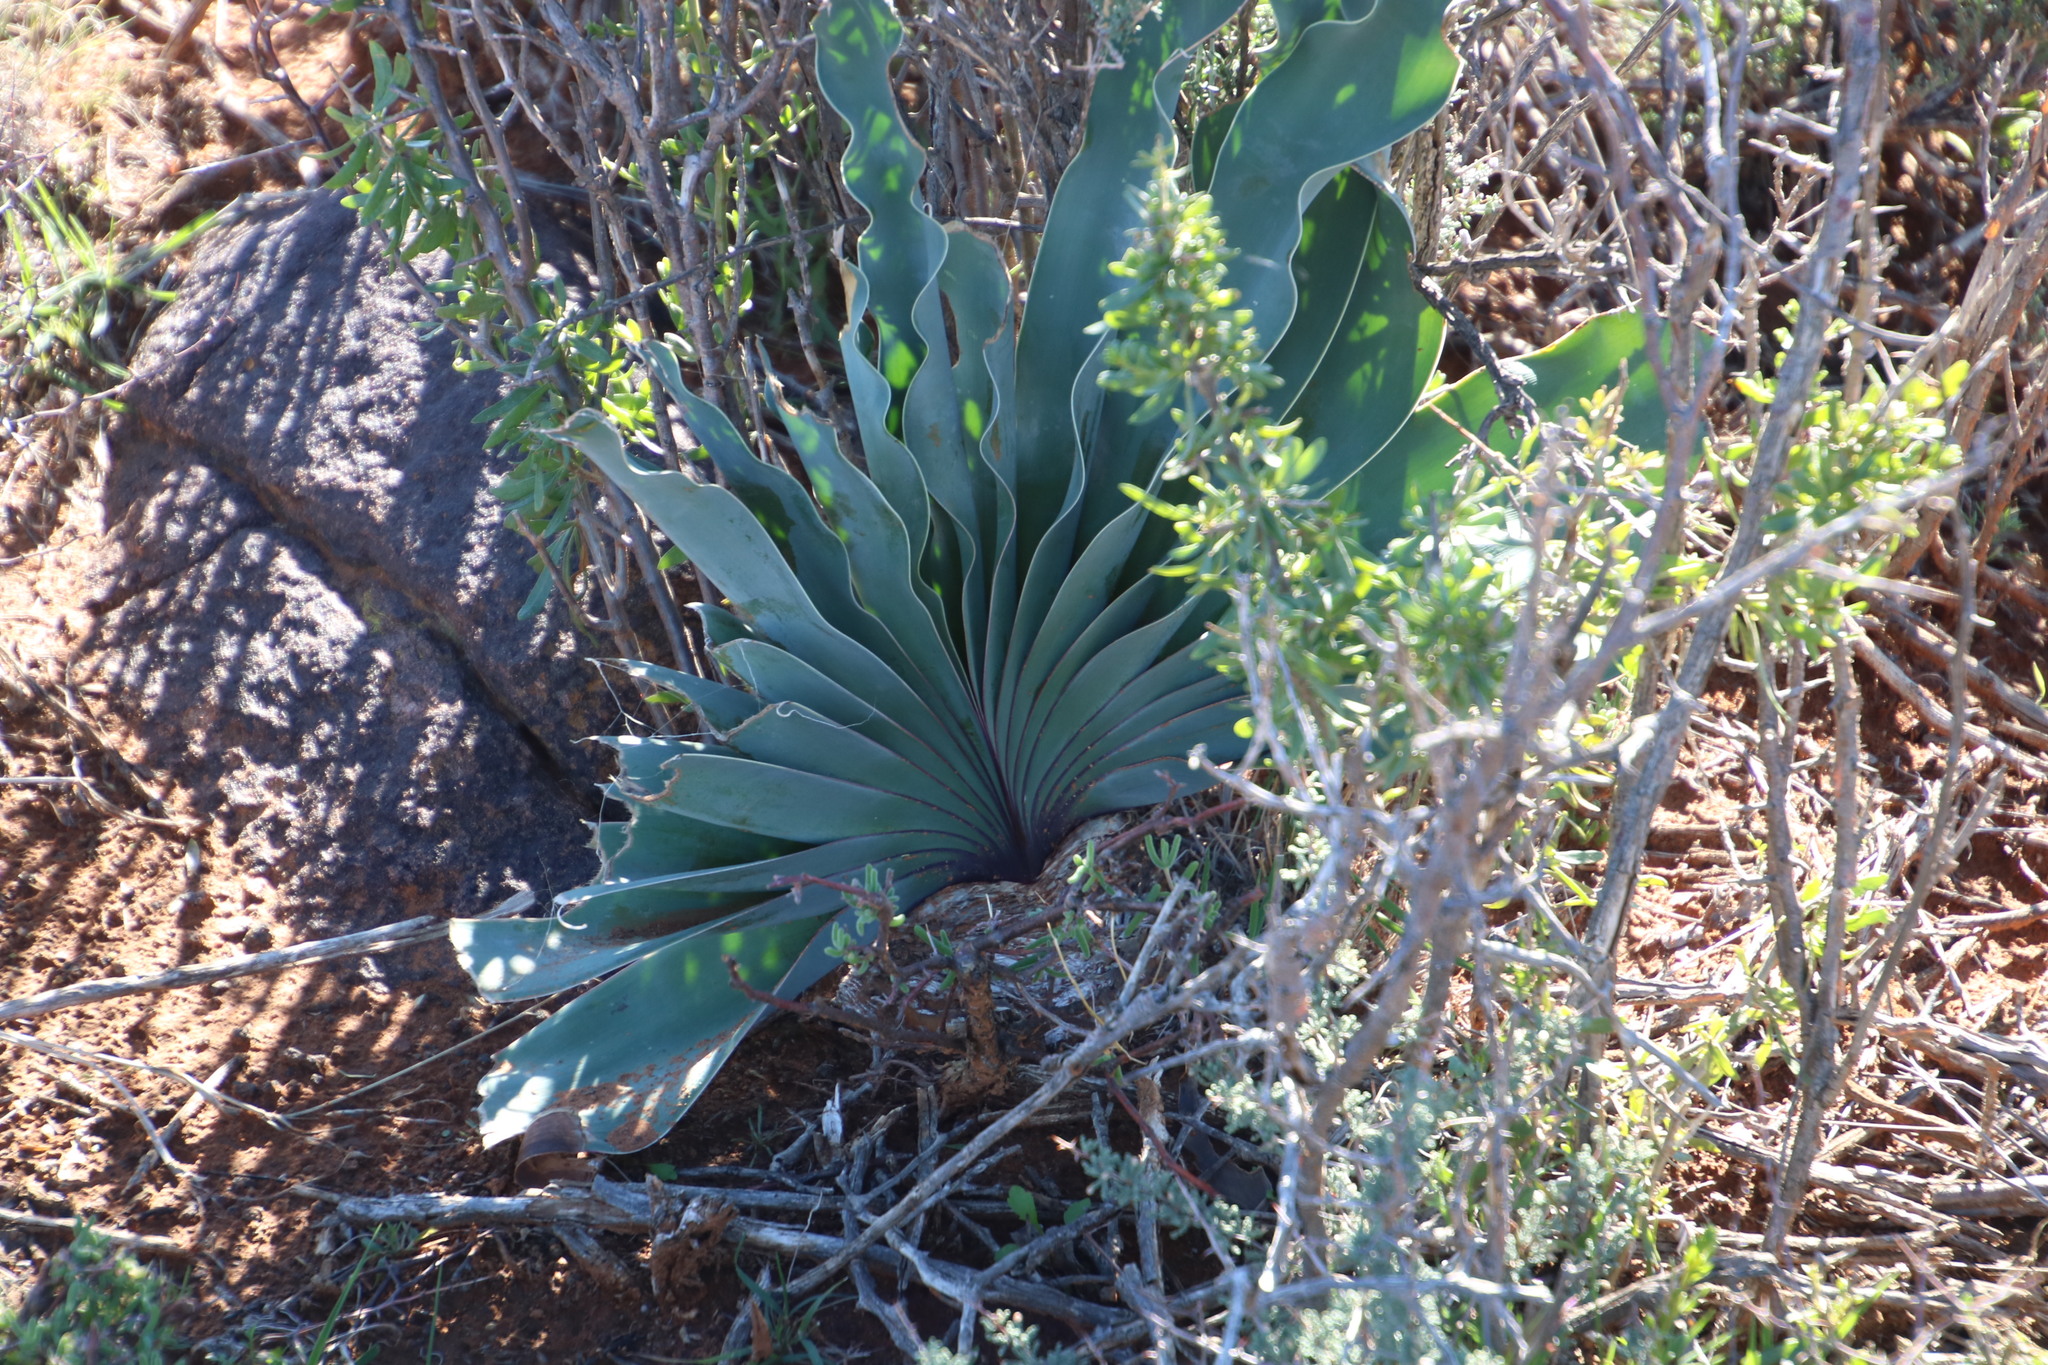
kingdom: Plantae
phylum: Tracheophyta
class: Liliopsida
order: Asparagales
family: Amaryllidaceae
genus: Boophone
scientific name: Boophone disticha
